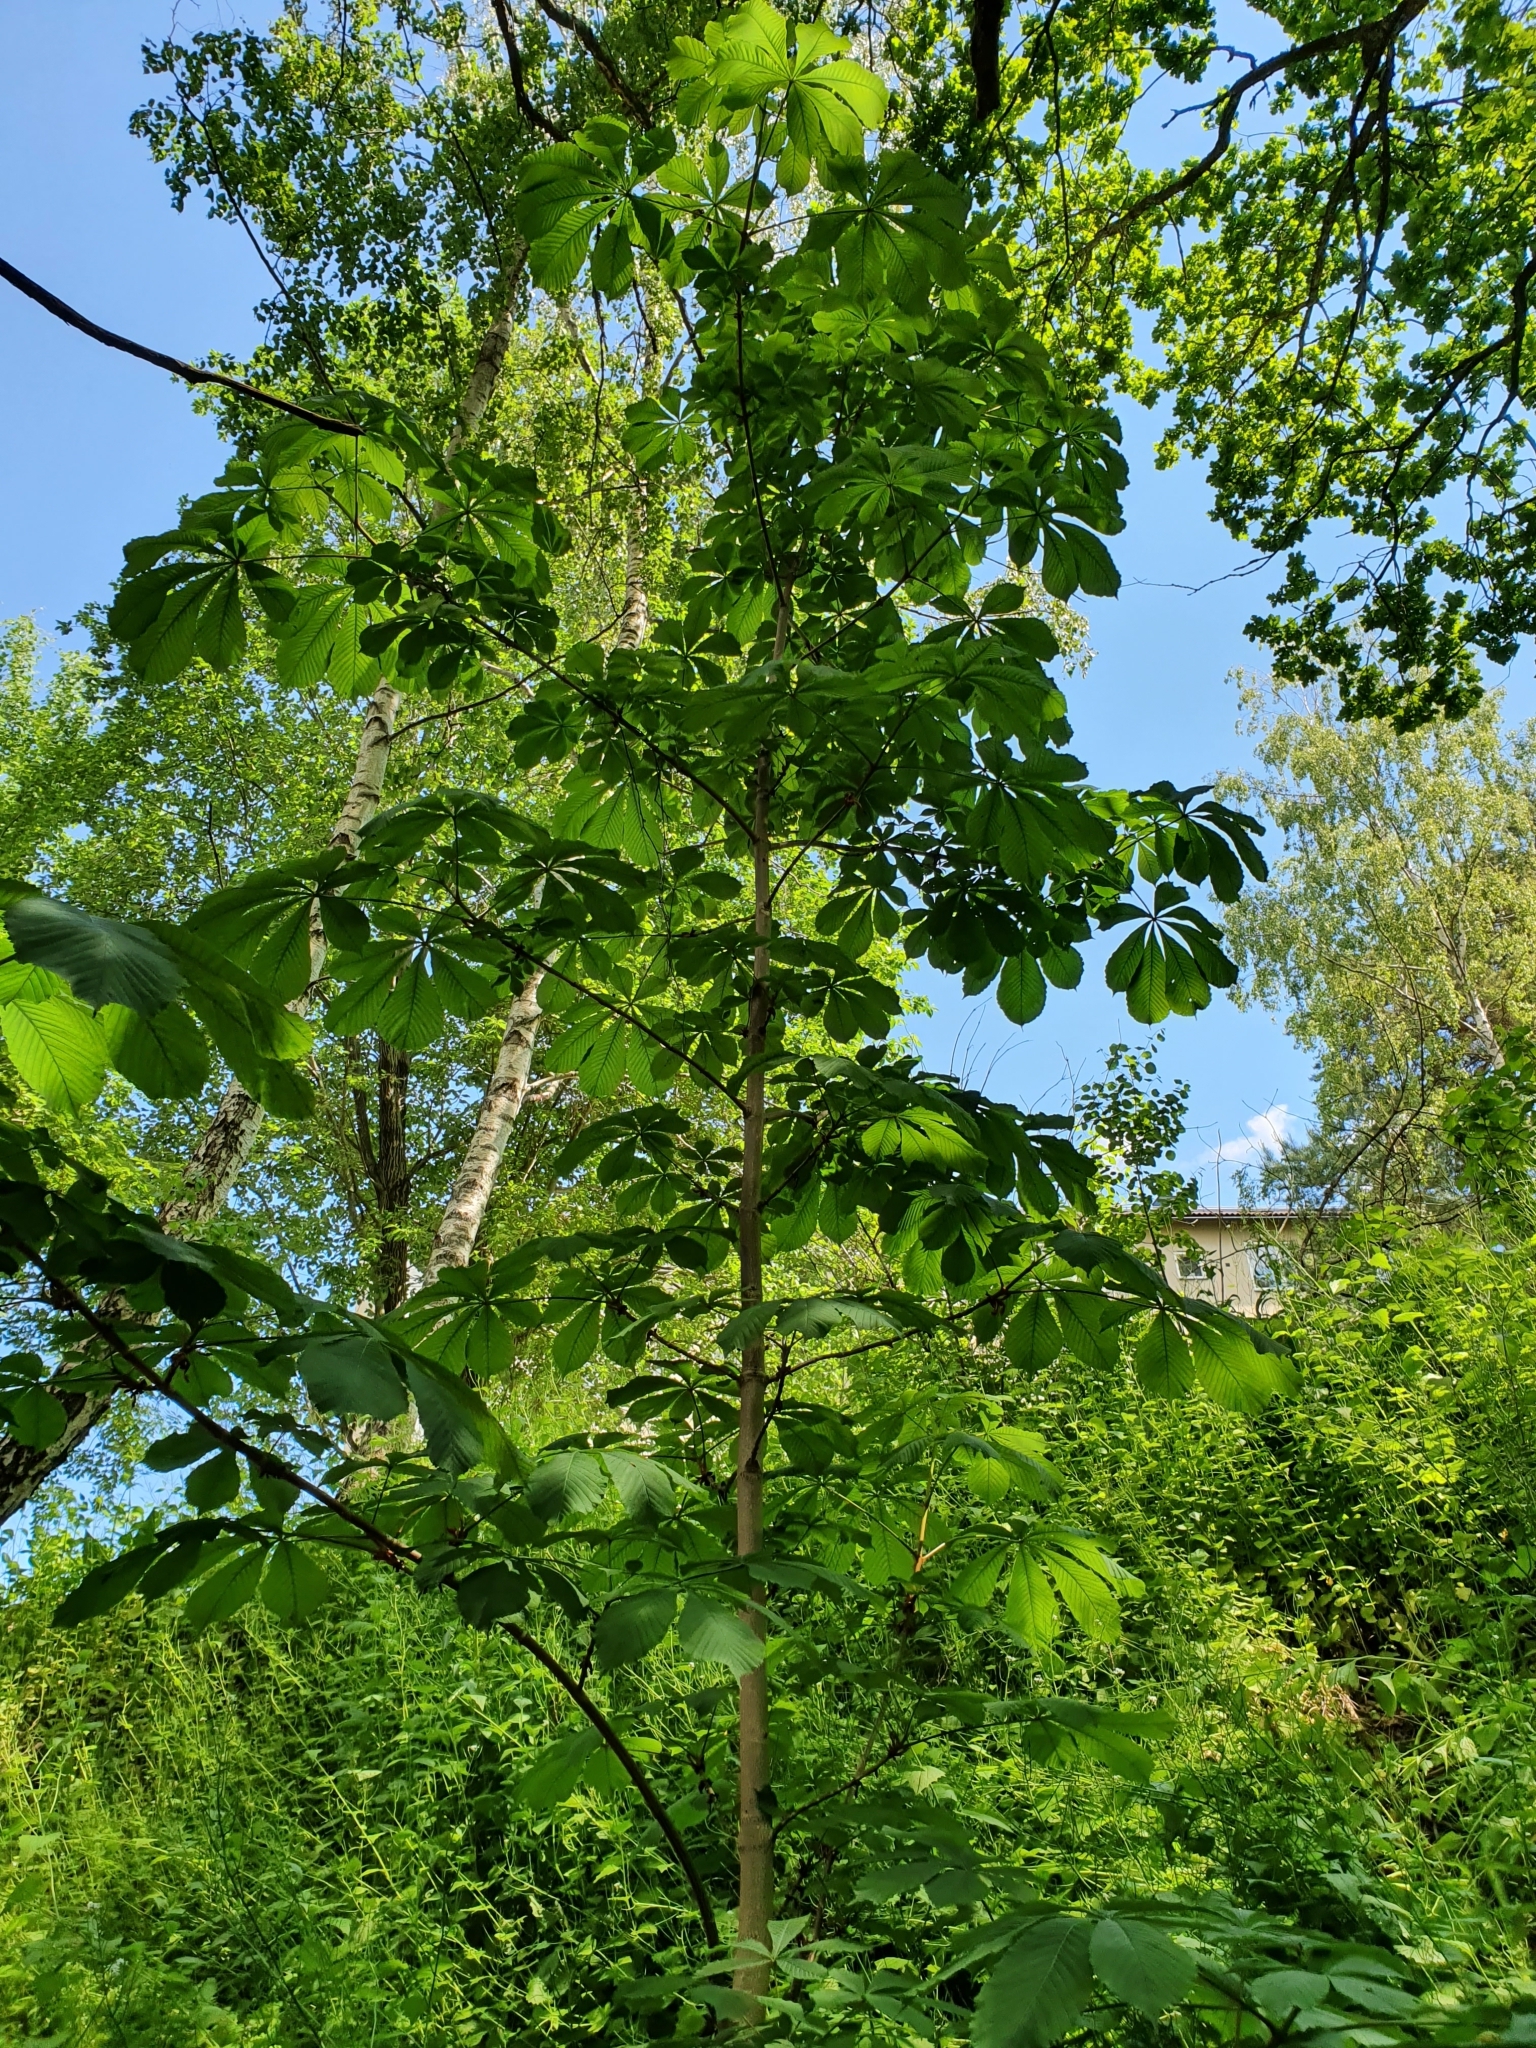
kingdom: Plantae
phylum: Tracheophyta
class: Magnoliopsida
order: Sapindales
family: Sapindaceae
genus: Aesculus
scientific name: Aesculus hippocastanum
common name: Horse-chestnut
